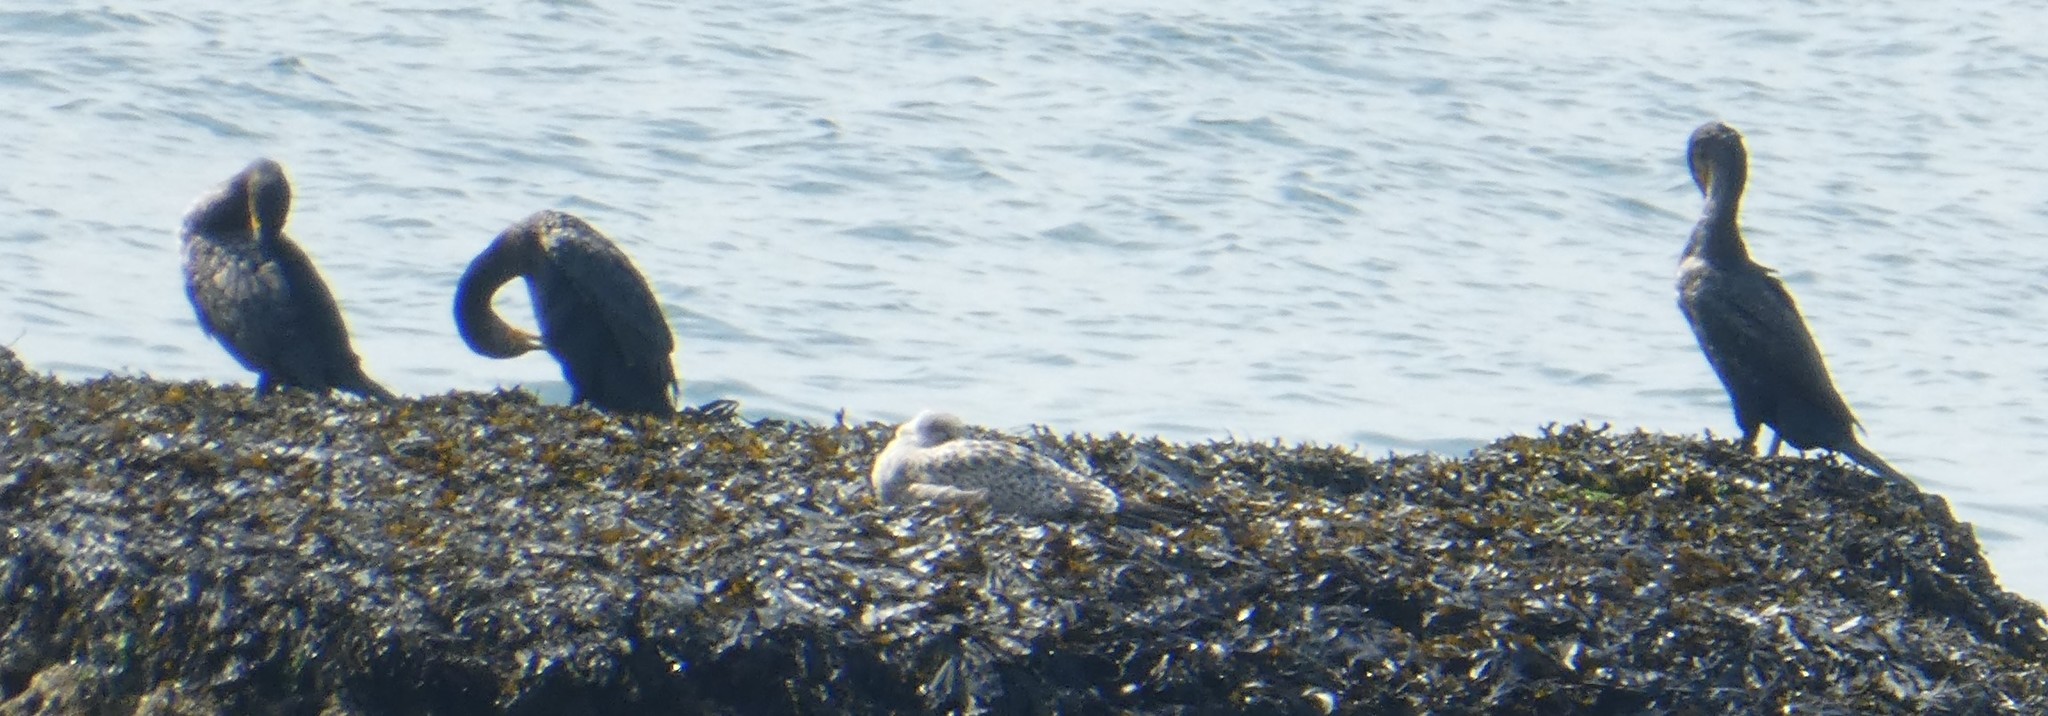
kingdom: Animalia
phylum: Chordata
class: Aves
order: Suliformes
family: Phalacrocoracidae
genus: Phalacrocorax
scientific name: Phalacrocorax carbo
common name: Great cormorant
